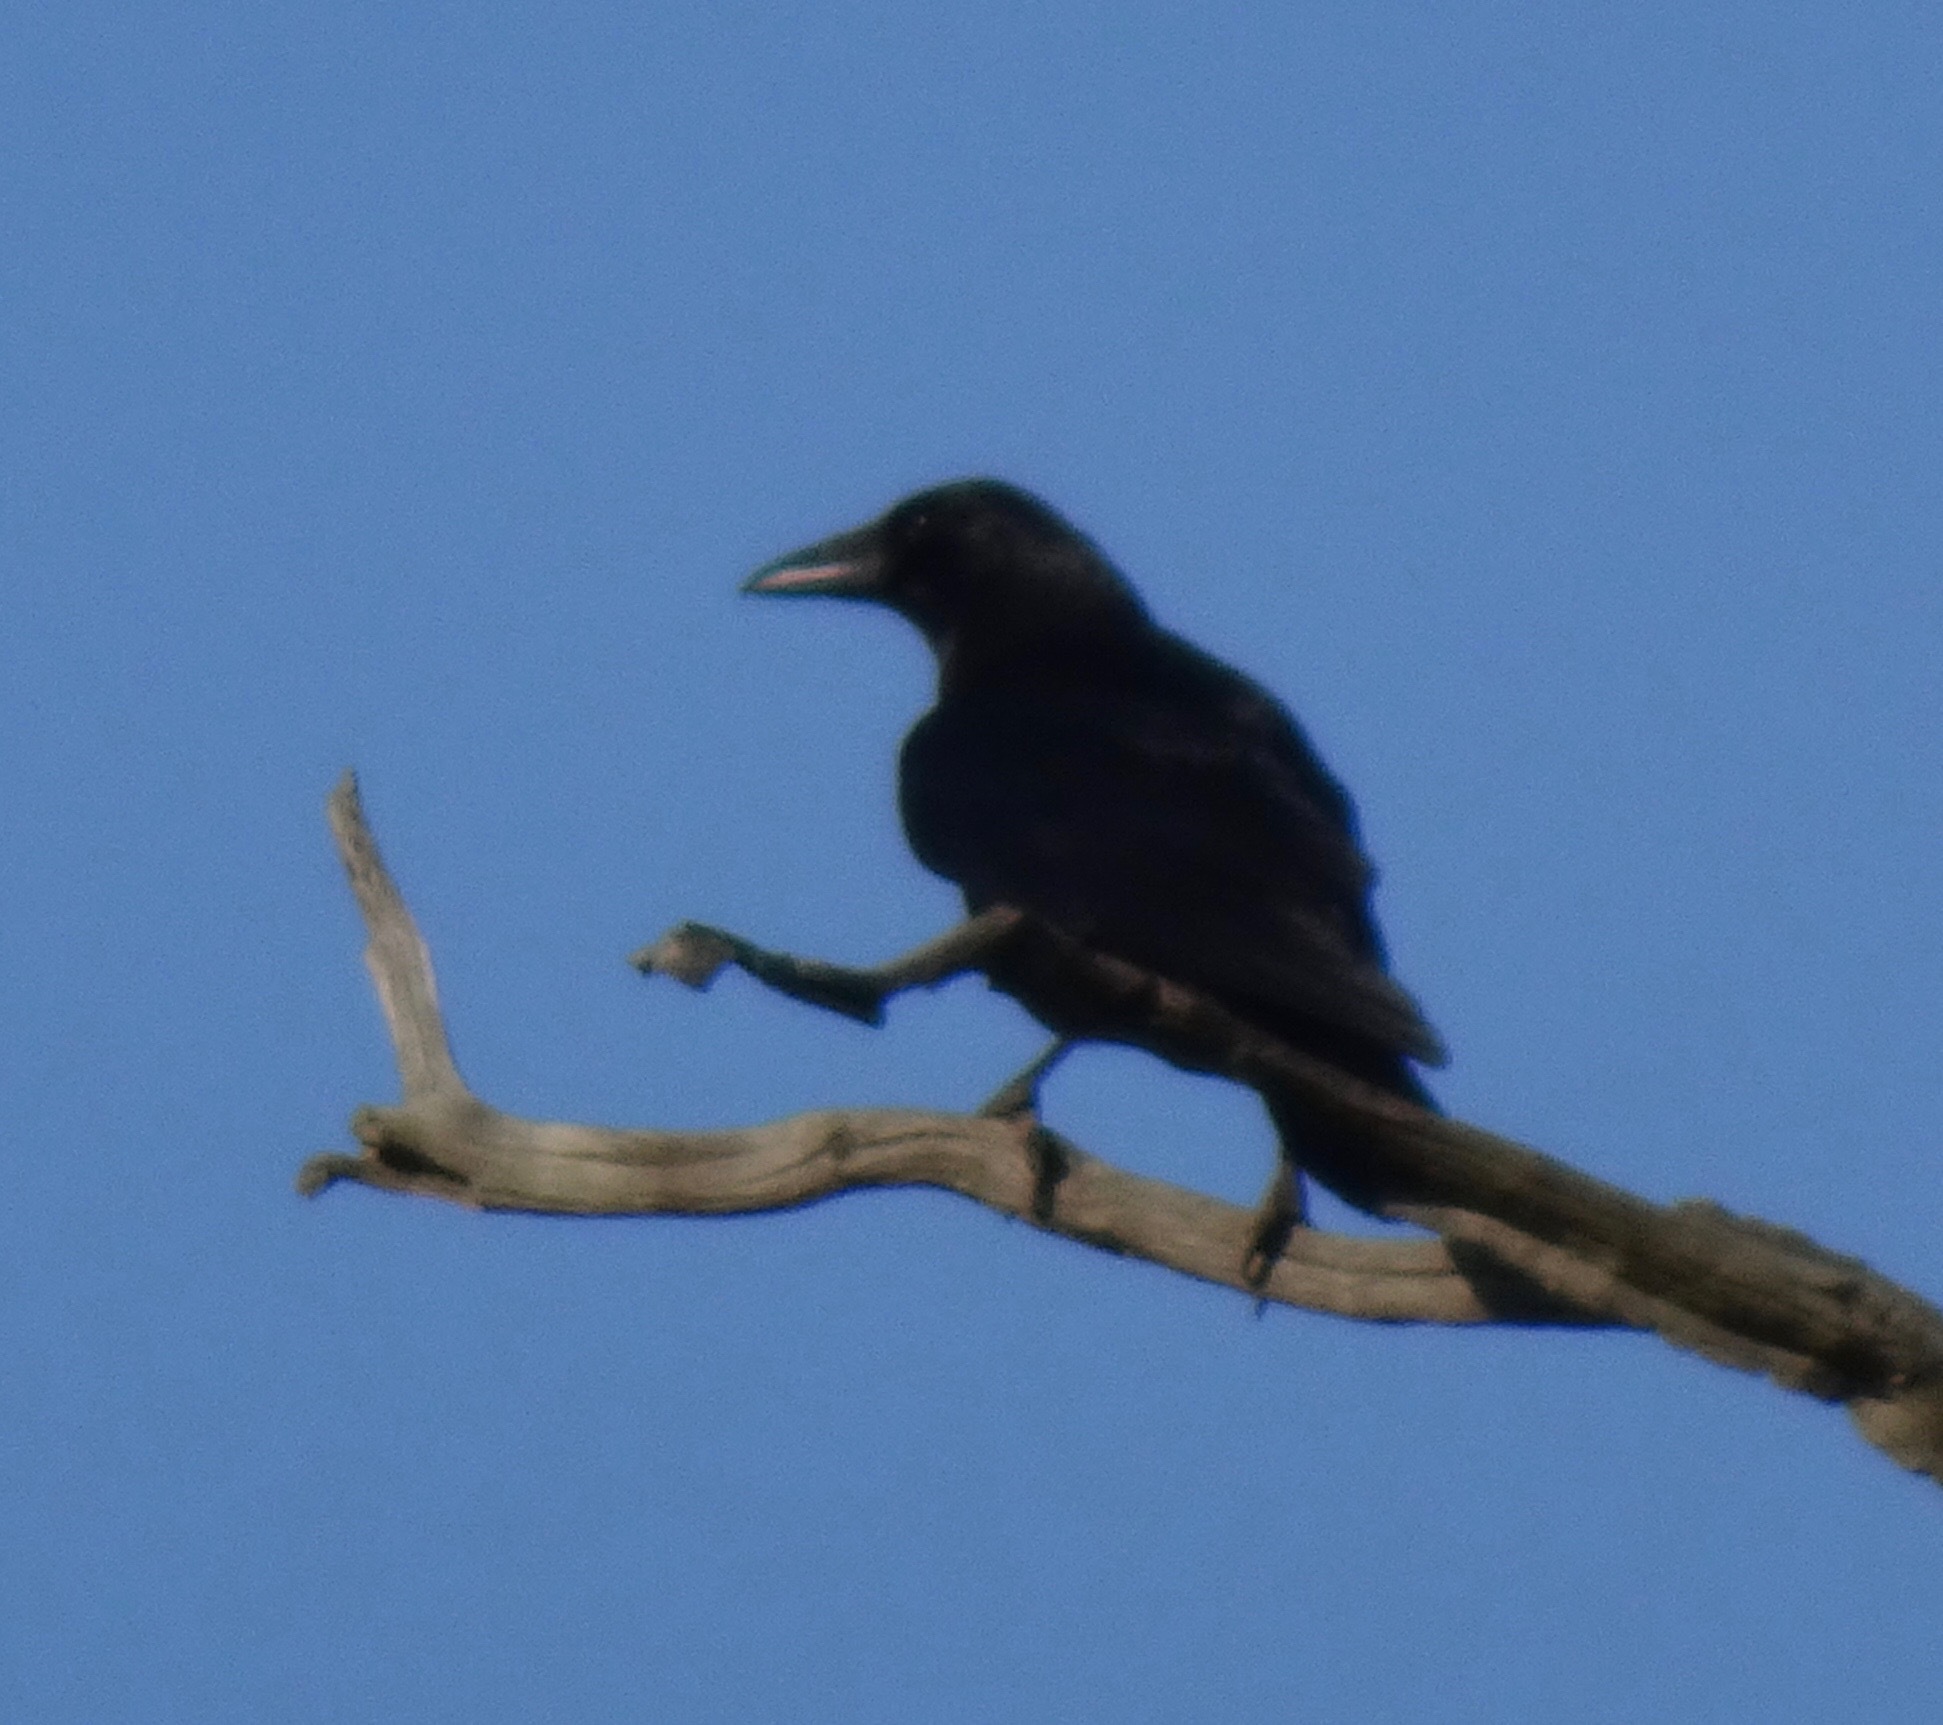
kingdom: Animalia
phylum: Chordata
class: Aves
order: Passeriformes
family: Corvidae
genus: Corvus
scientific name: Corvus corone
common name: Carrion crow
